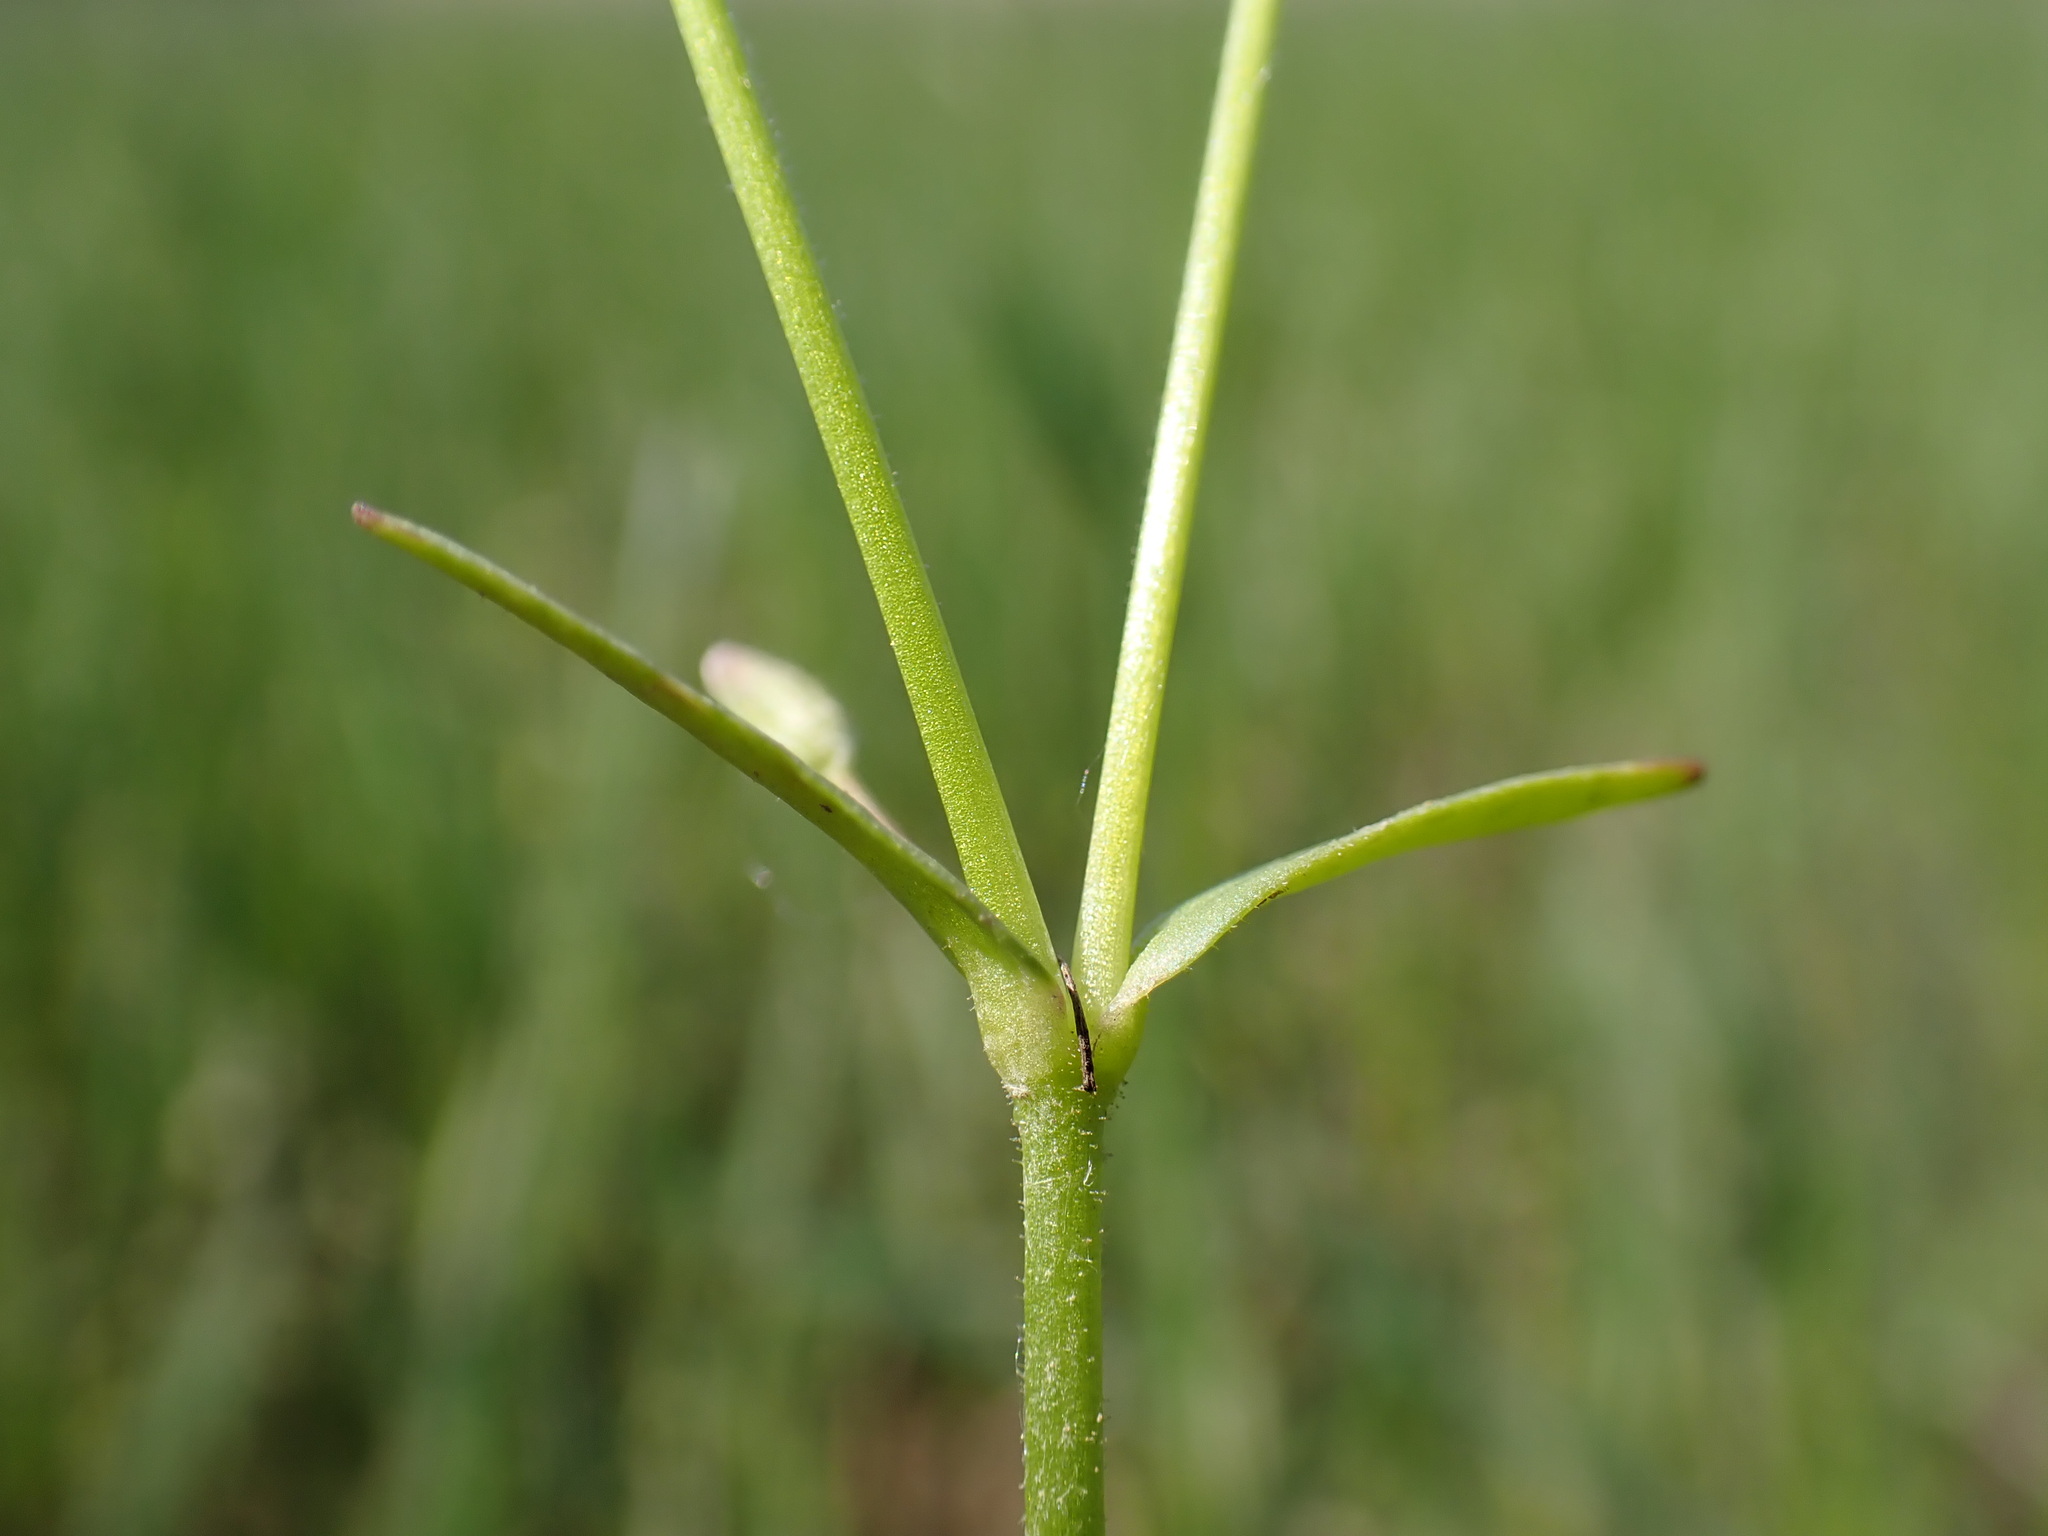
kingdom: Plantae
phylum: Tracheophyta
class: Magnoliopsida
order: Caryophyllales
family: Caryophyllaceae
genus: Dichodon
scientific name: Dichodon viscidum
